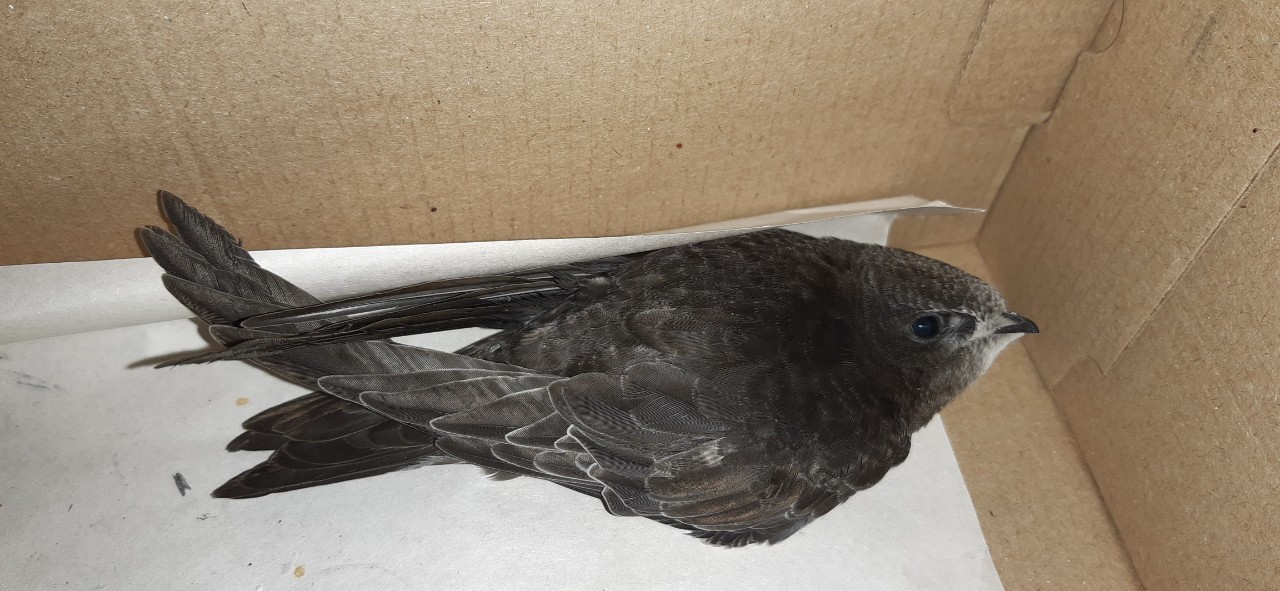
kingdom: Animalia
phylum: Chordata
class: Aves
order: Apodiformes
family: Apodidae
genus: Apus
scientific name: Apus apus
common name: Common swift
